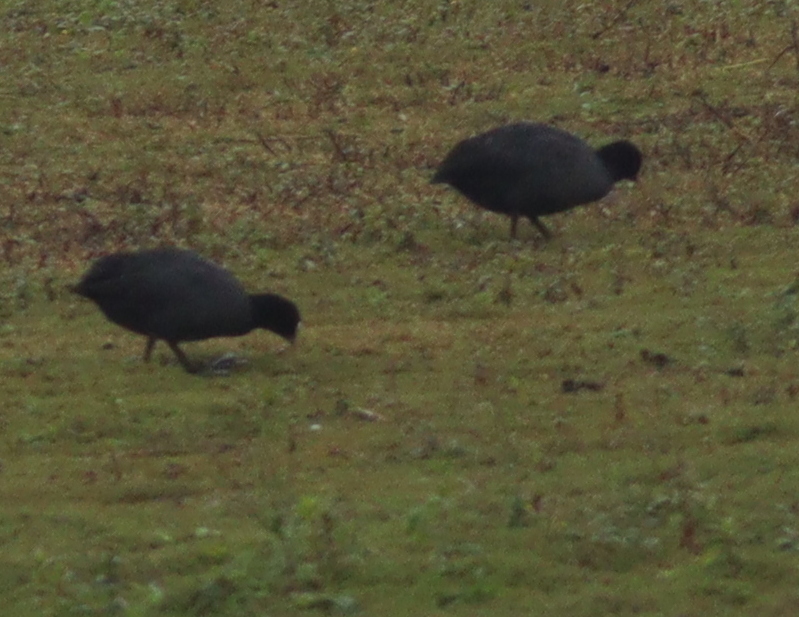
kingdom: Animalia
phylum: Chordata
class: Aves
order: Gruiformes
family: Rallidae
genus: Fulica
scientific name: Fulica atra
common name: Eurasian coot
